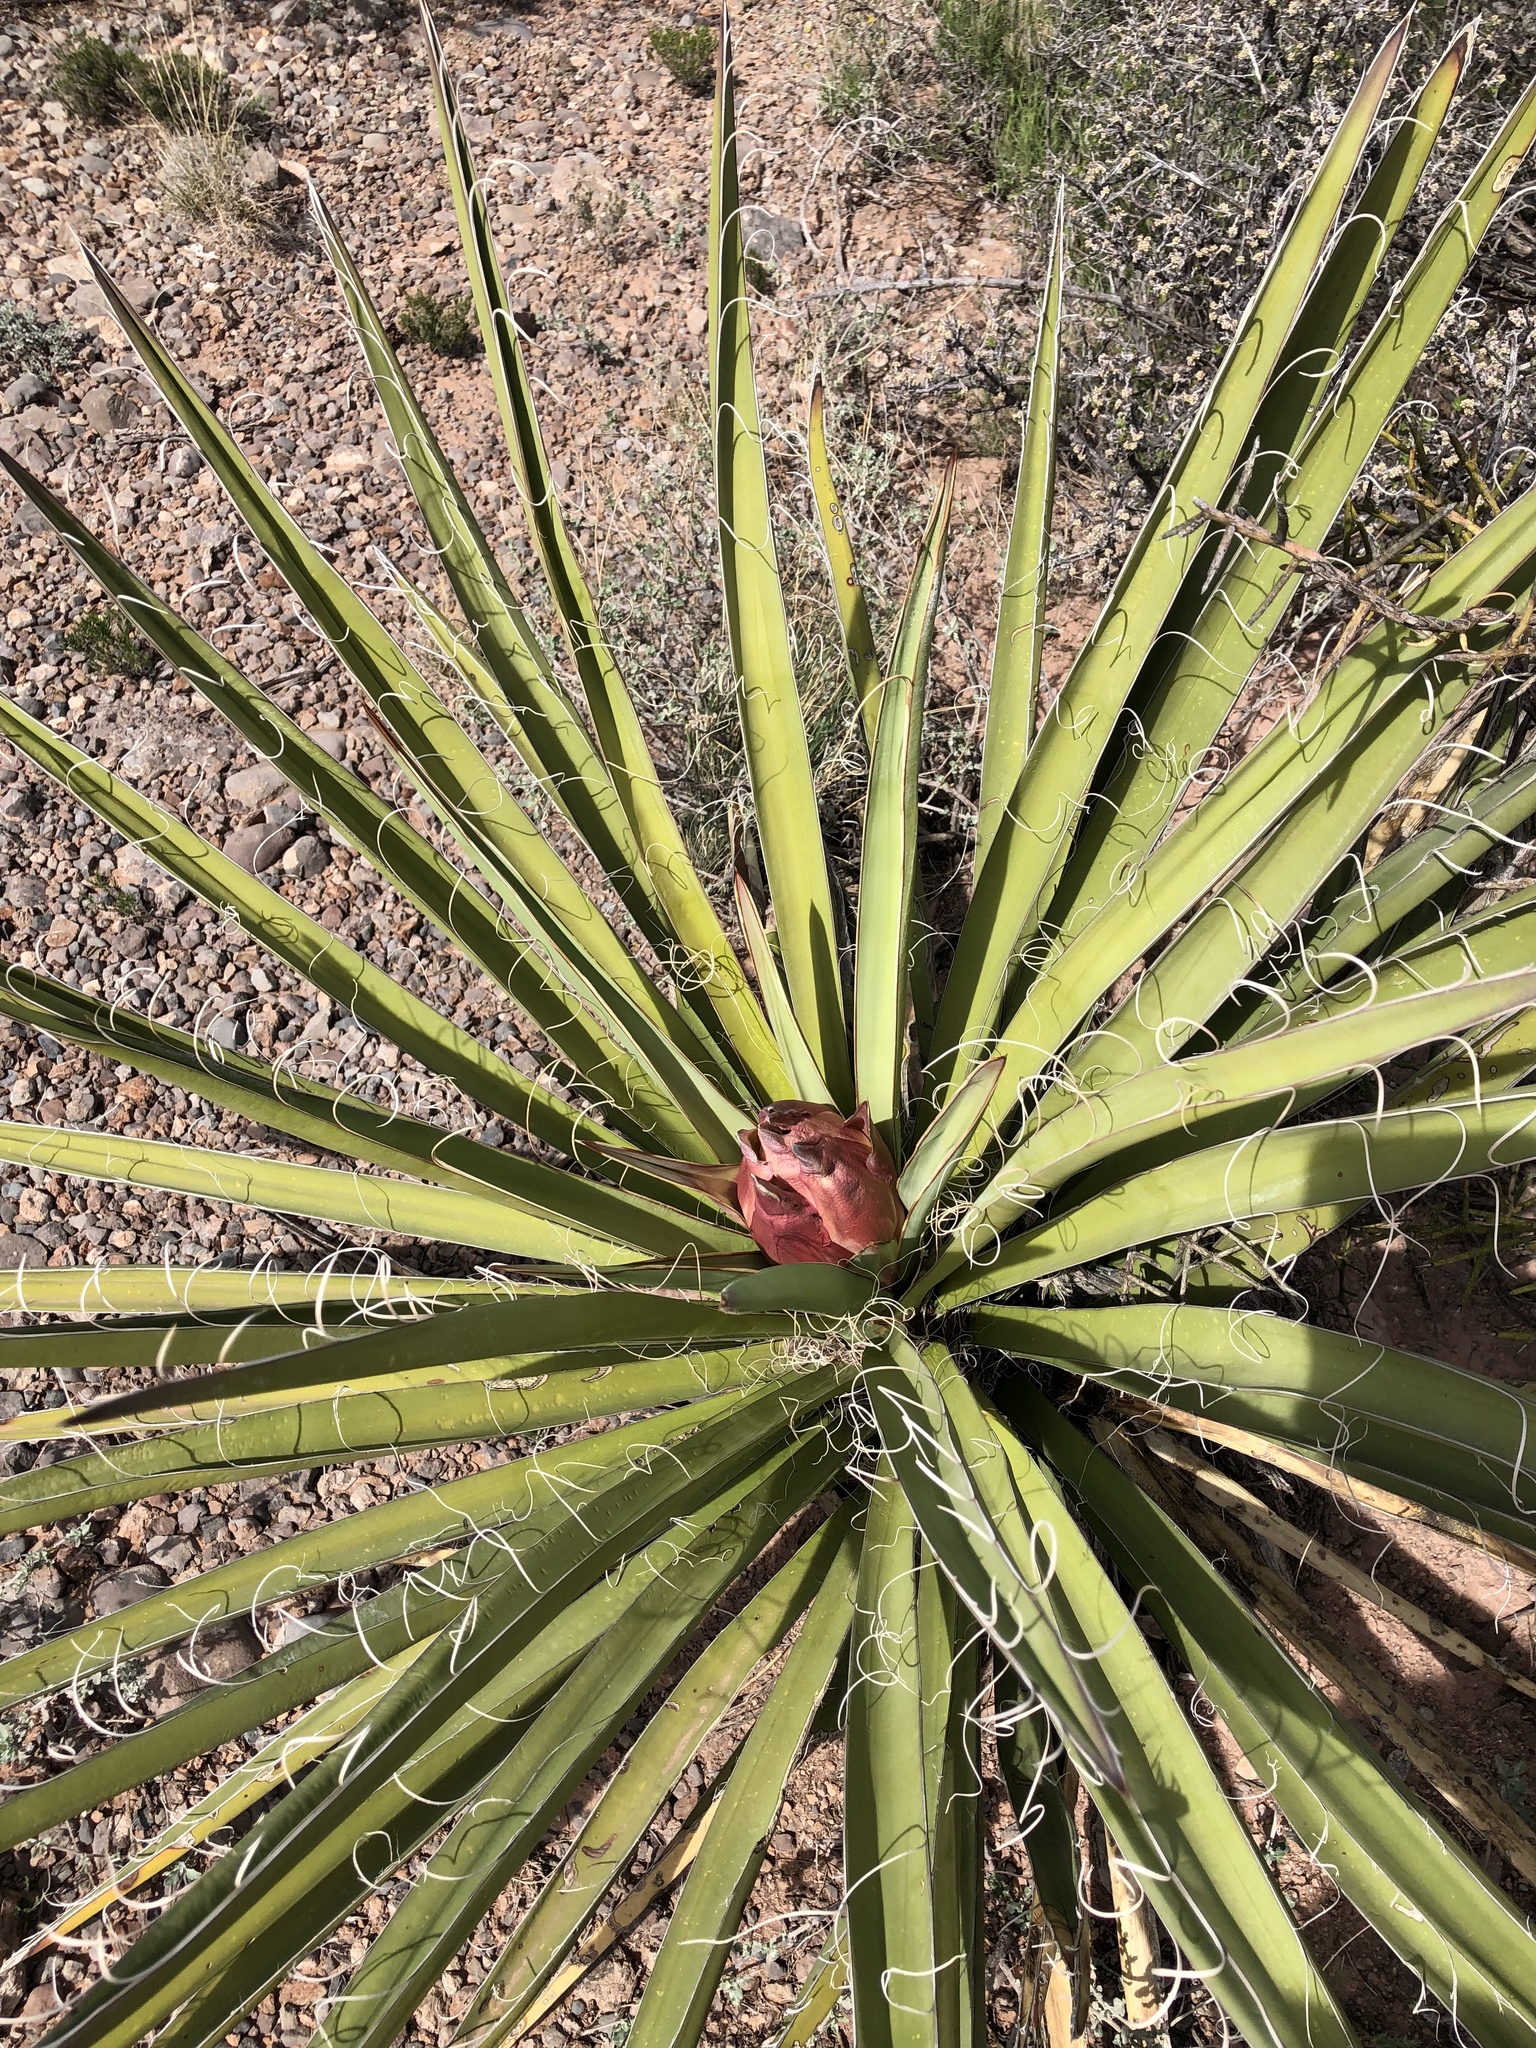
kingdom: Plantae
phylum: Tracheophyta
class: Liliopsida
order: Asparagales
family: Asparagaceae
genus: Yucca
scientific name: Yucca baccata
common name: Banana yucca
